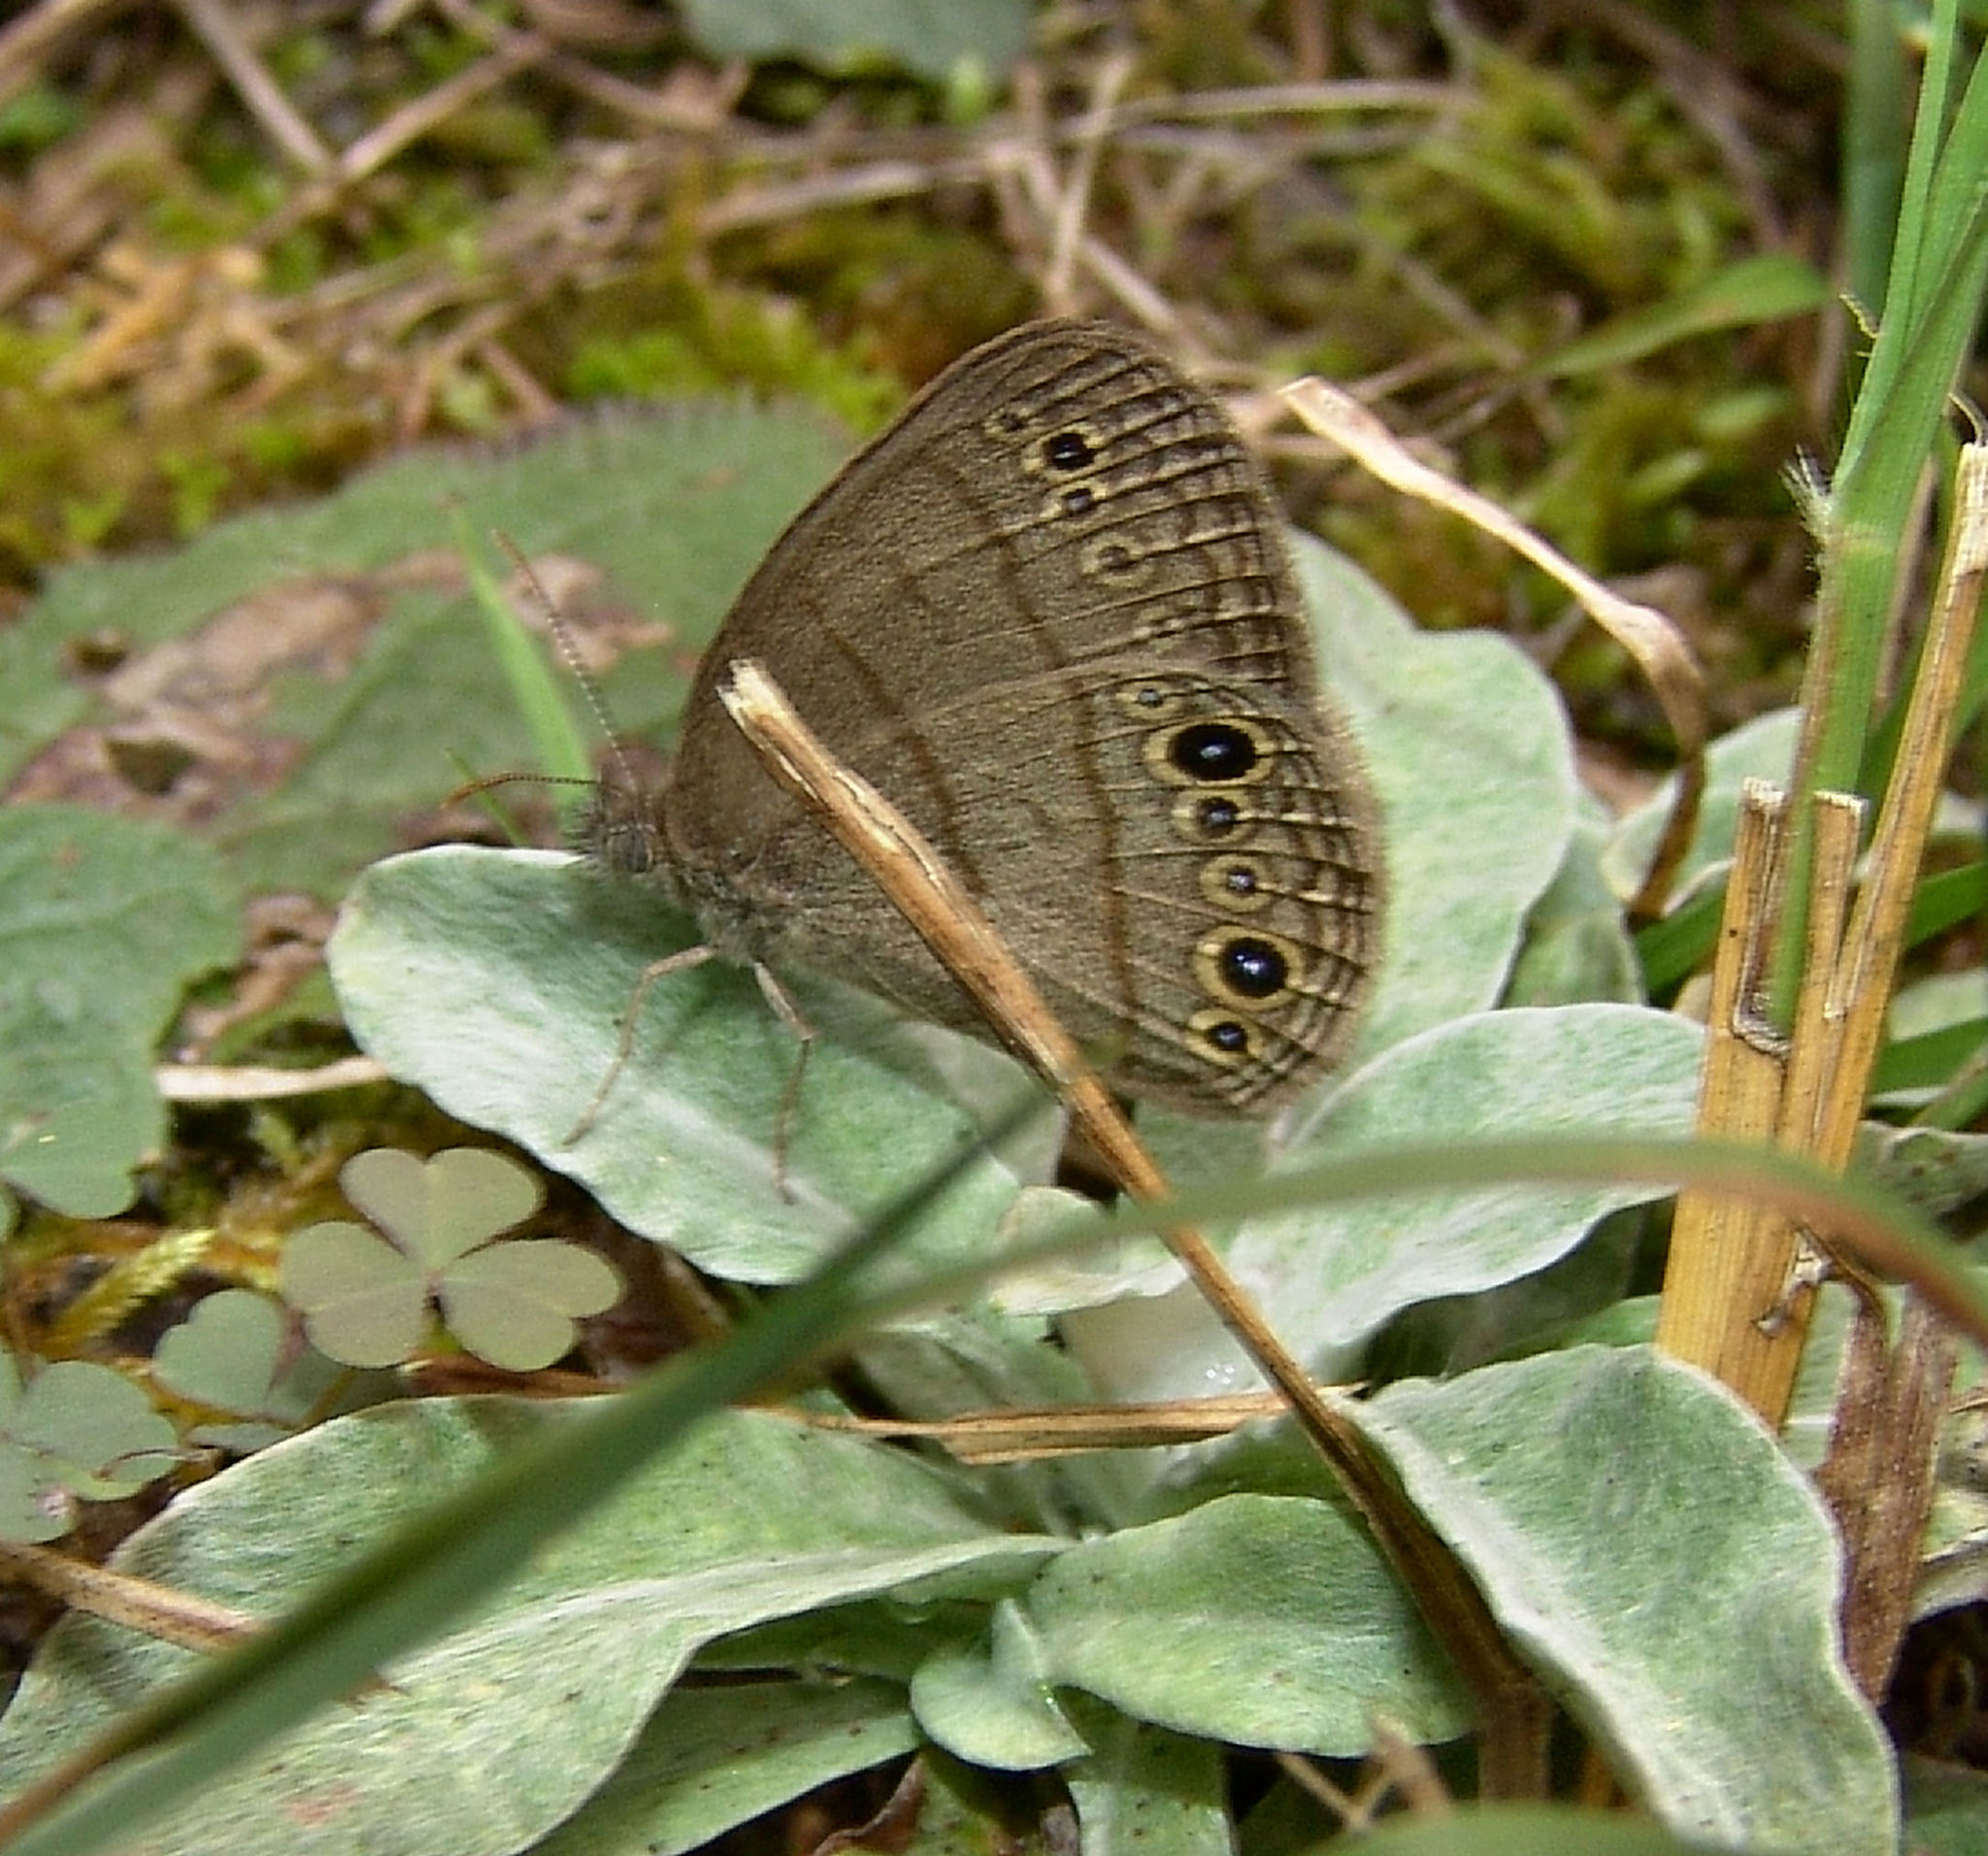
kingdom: Animalia
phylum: Arthropoda
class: Insecta
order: Lepidoptera
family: Nymphalidae
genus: Hermeuptychia
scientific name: Hermeuptychia hermes
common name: Hermes satyr
